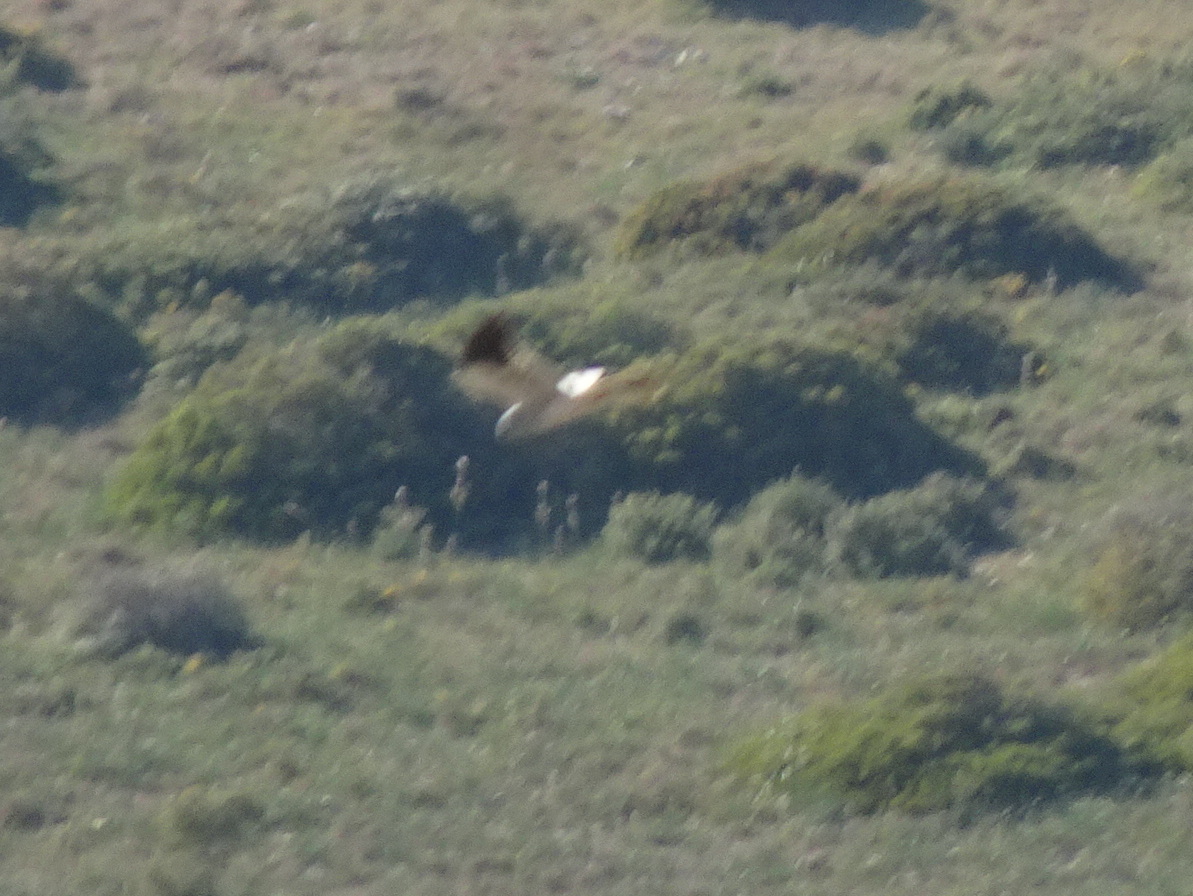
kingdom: Animalia
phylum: Chordata
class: Aves
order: Accipitriformes
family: Accipitridae
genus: Circus
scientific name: Circus cyaneus
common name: Hen harrier
